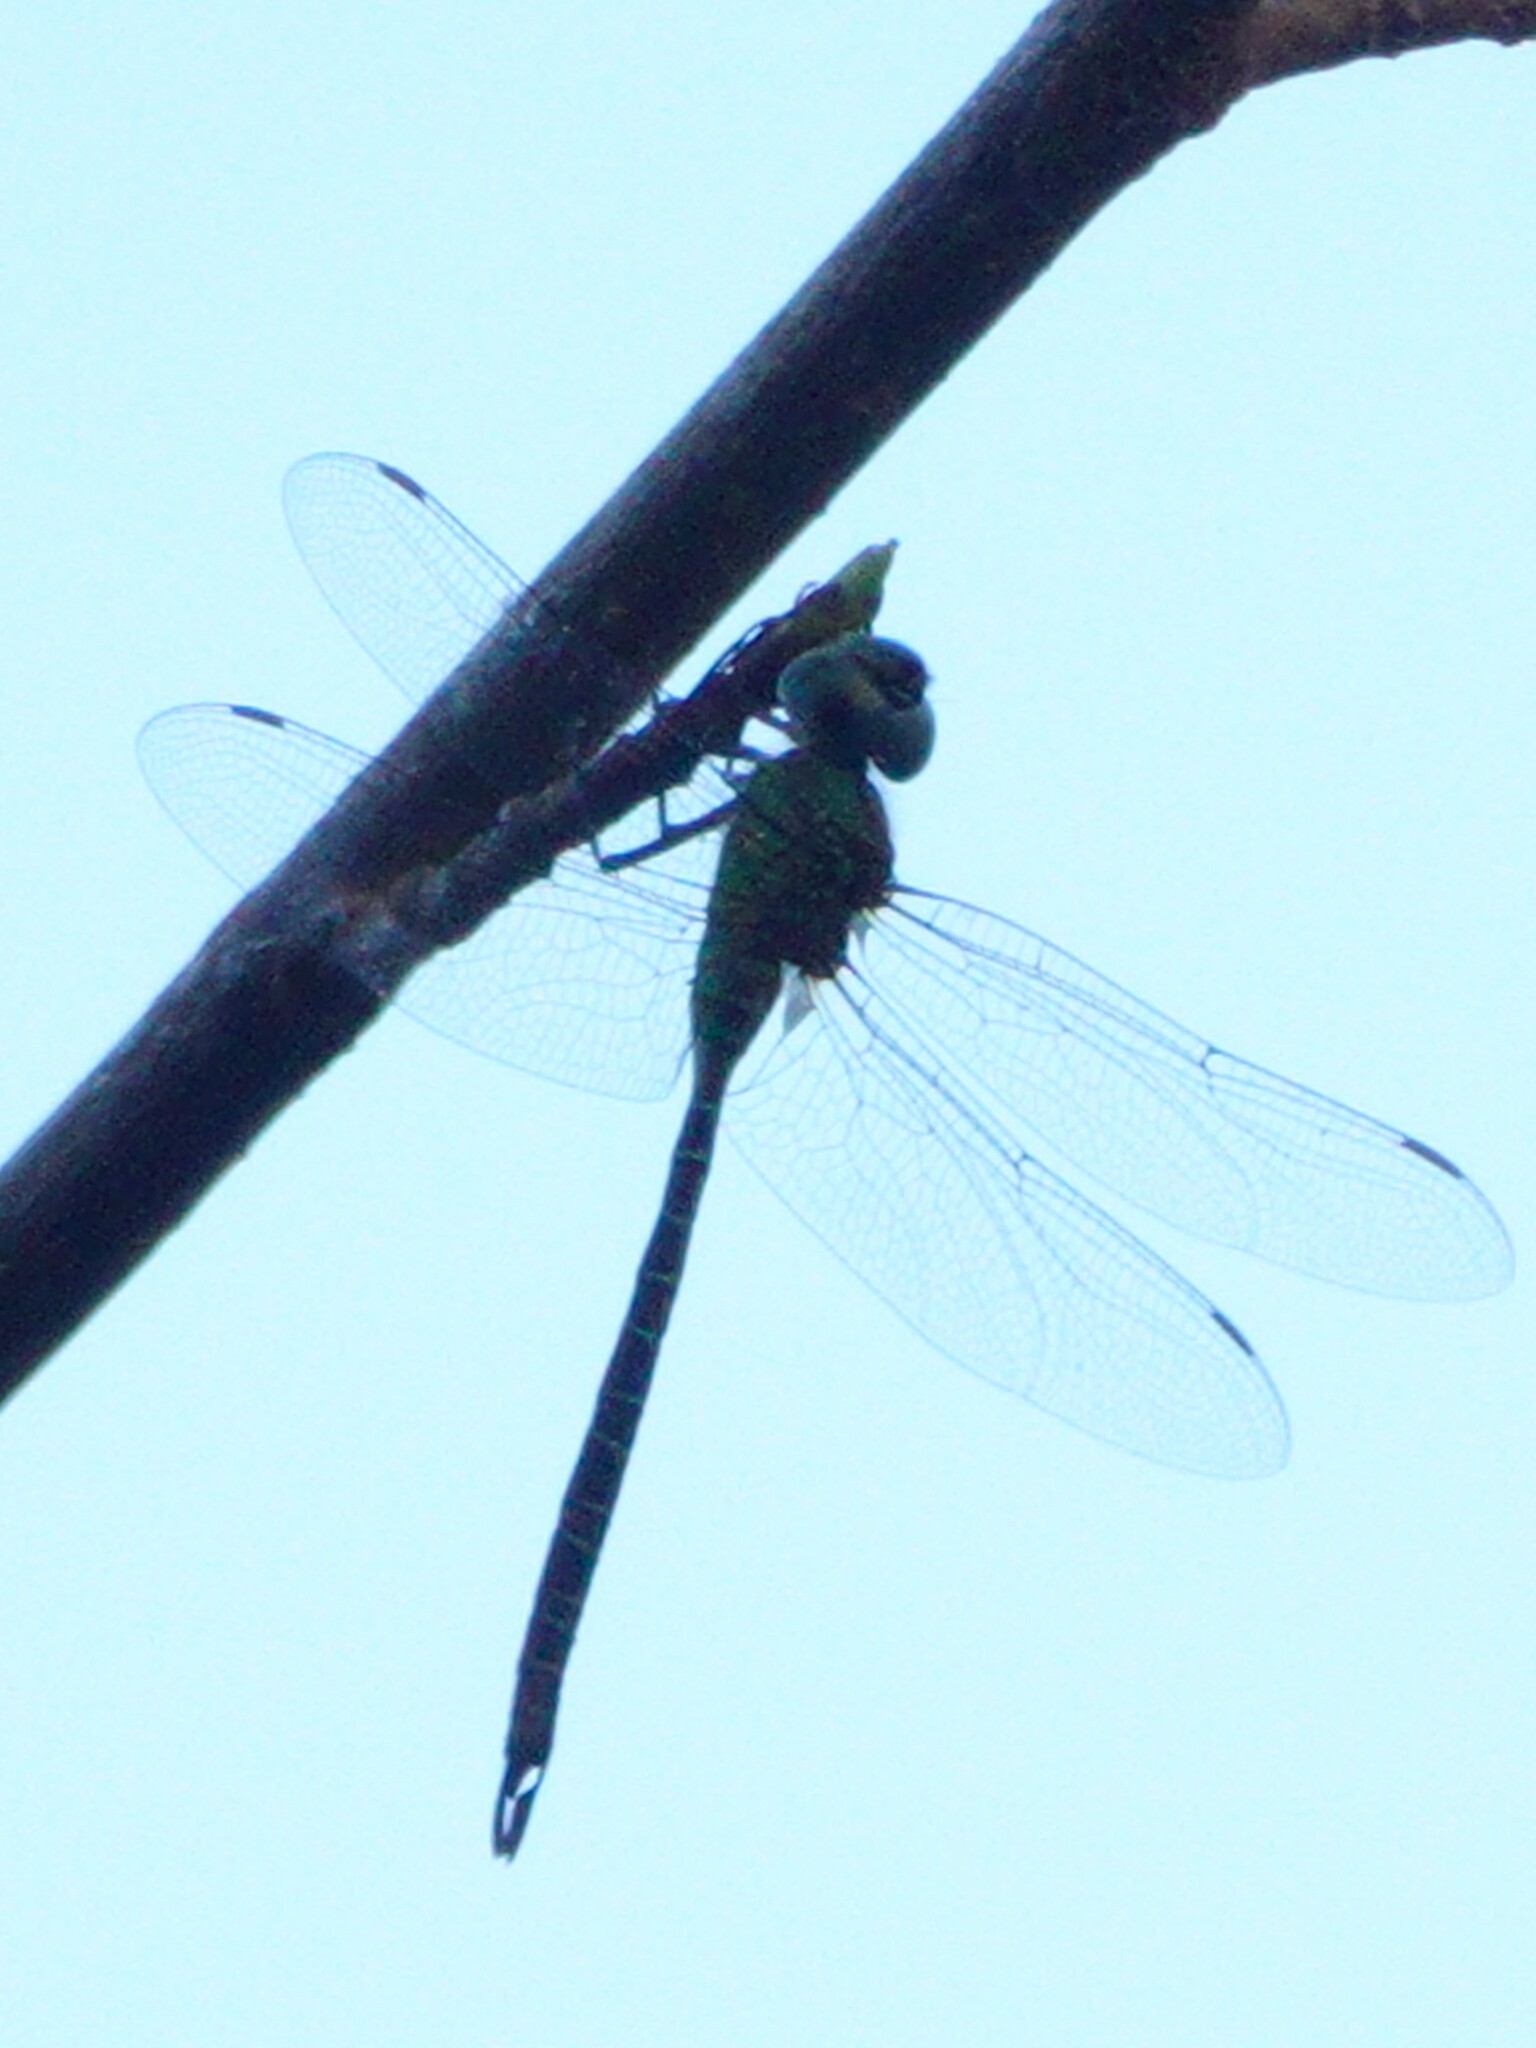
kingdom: Animalia
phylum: Arthropoda
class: Insecta
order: Odonata
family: Aeshnidae
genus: Coryphaeschna
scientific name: Coryphaeschna adnexa
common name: Blue-faced darner
